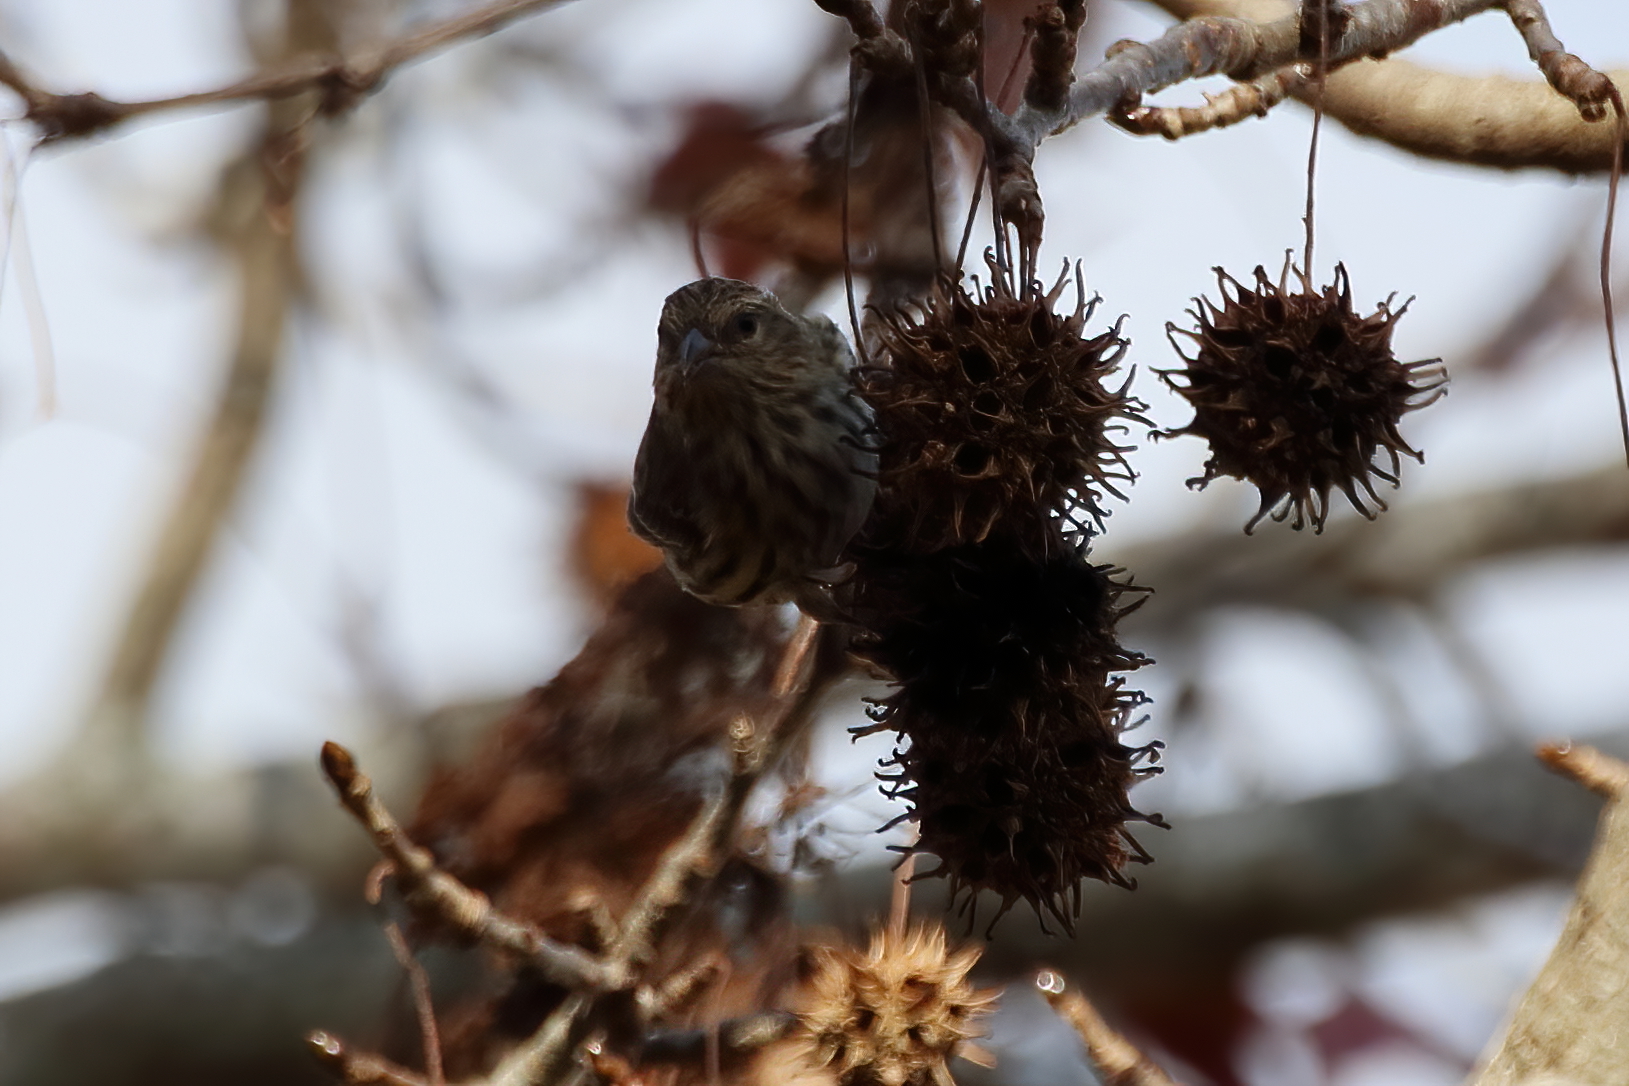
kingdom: Animalia
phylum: Chordata
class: Aves
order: Passeriformes
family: Fringillidae
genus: Spinus
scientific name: Spinus pinus
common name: Pine siskin
